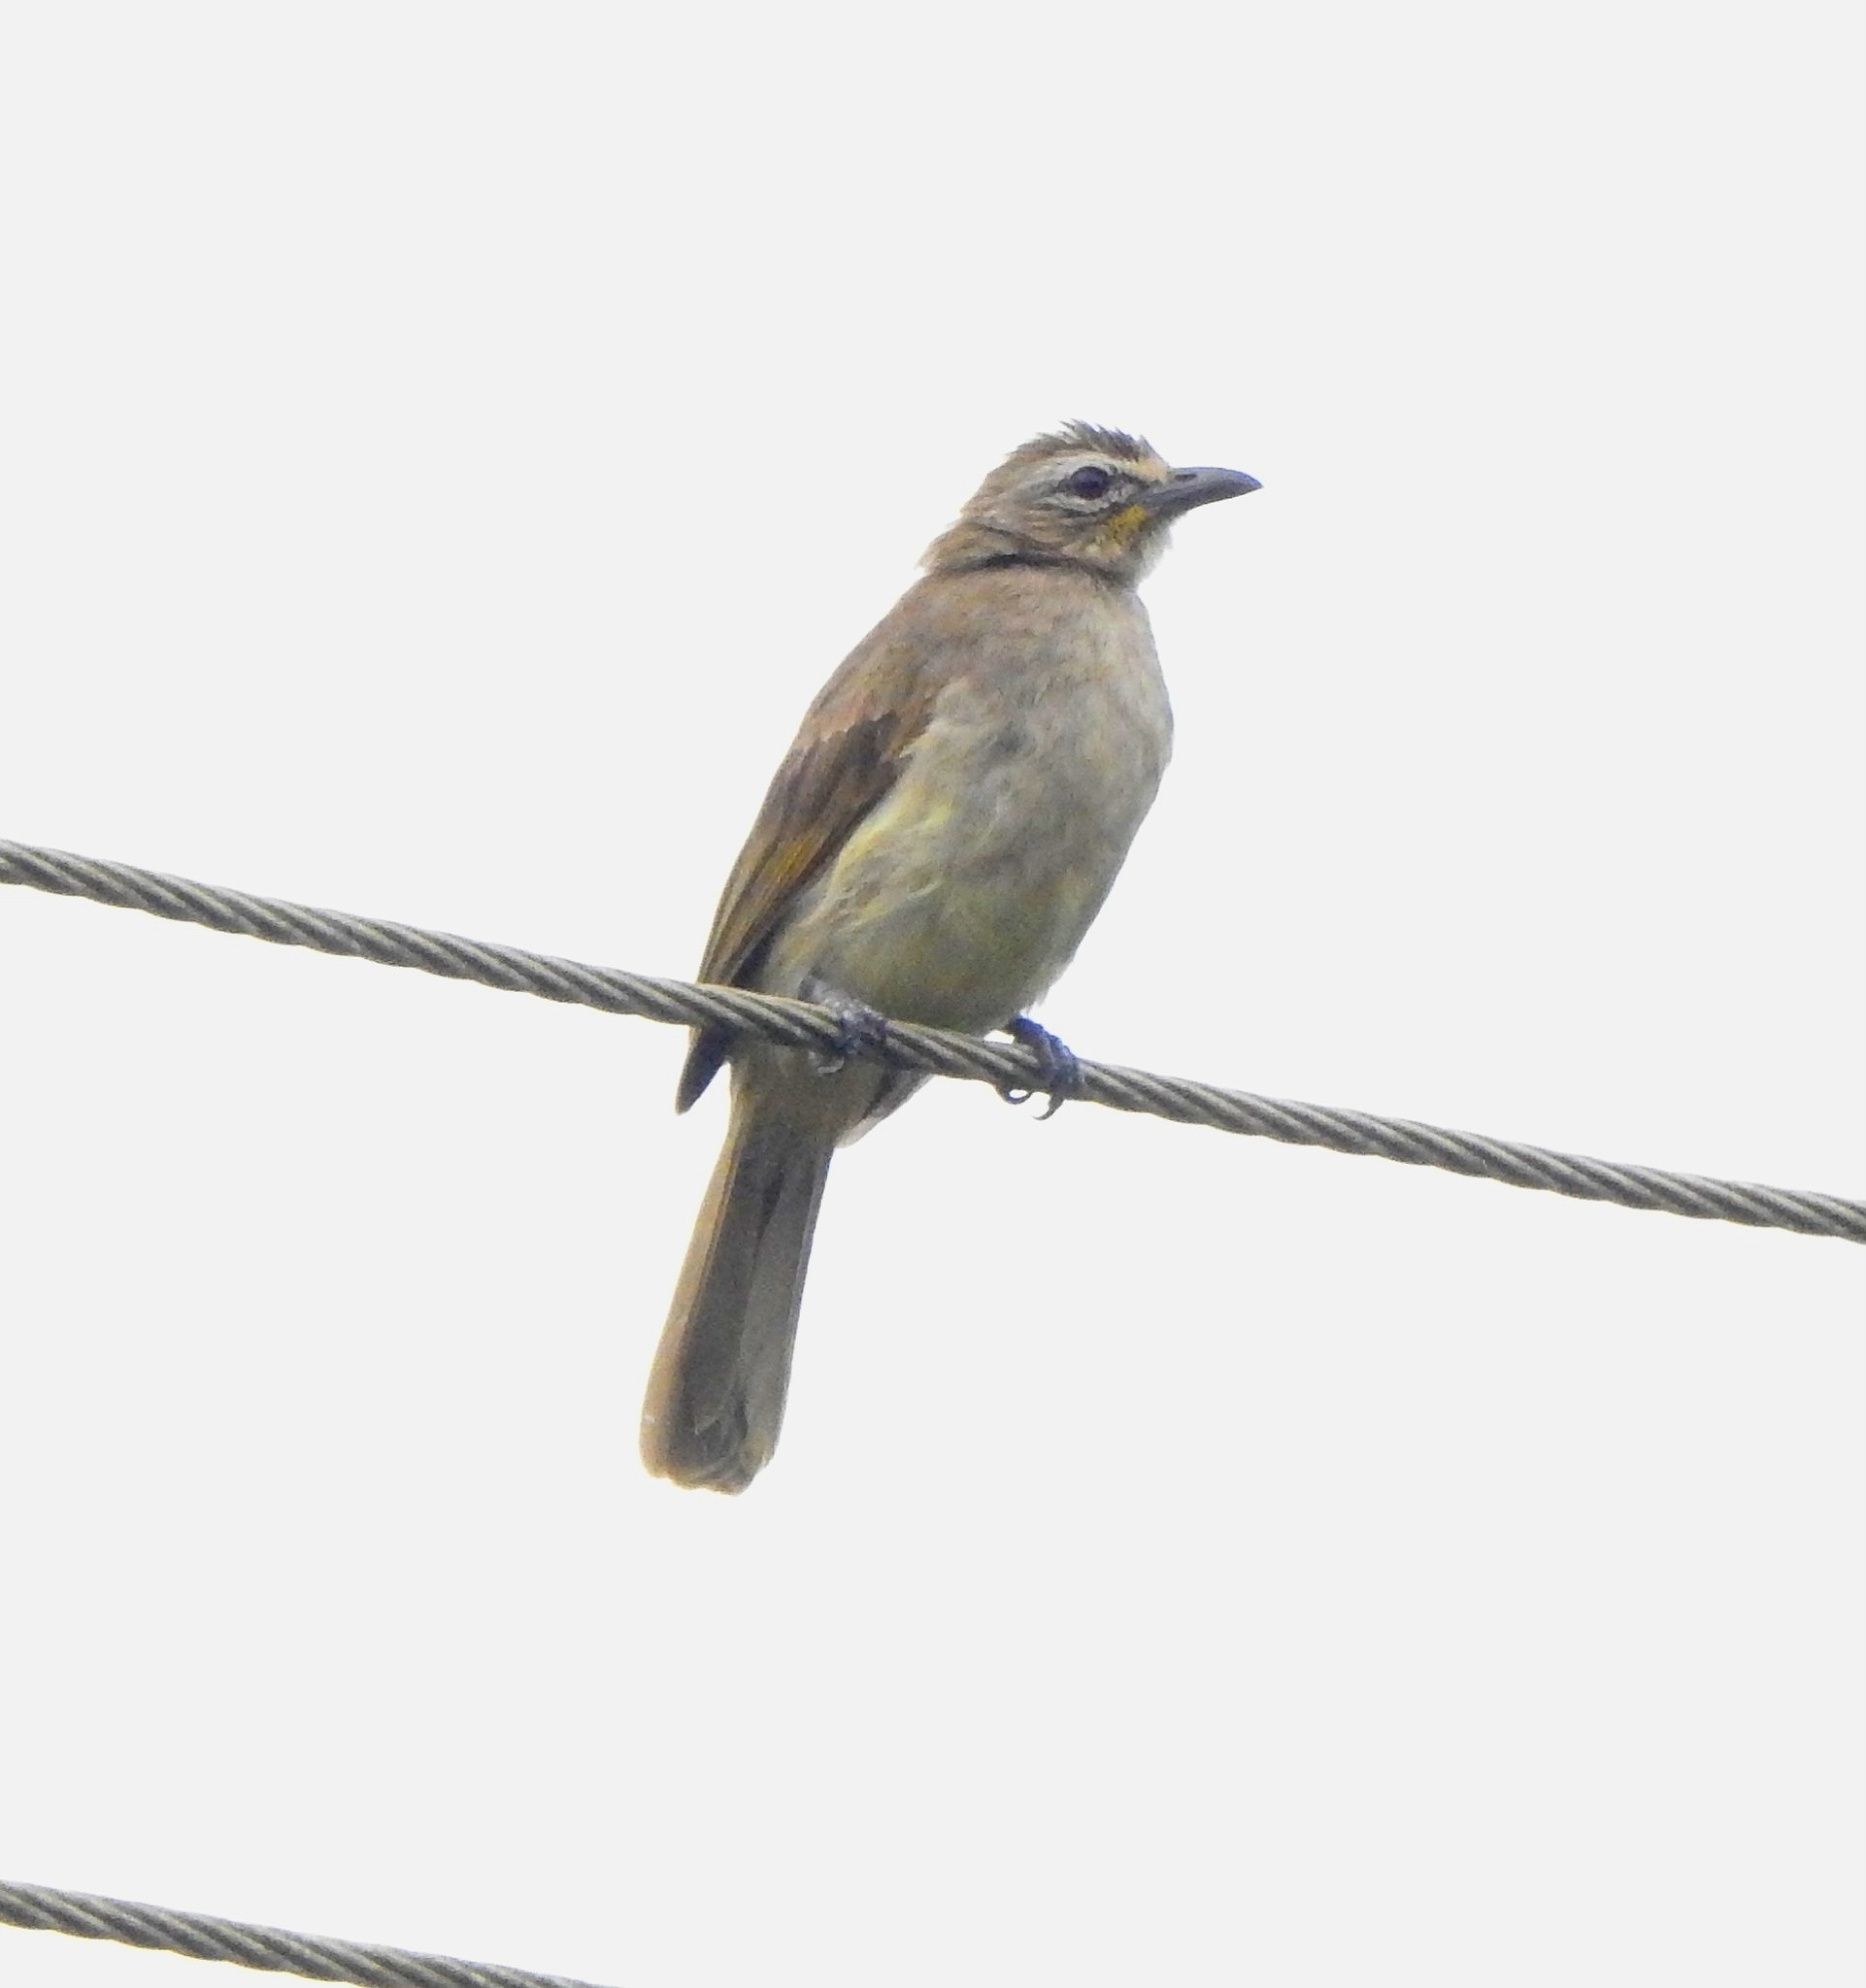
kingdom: Animalia
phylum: Chordata
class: Aves
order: Passeriformes
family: Pycnonotidae
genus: Pycnonotus
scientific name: Pycnonotus luteolus
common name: White-browed bulbul
